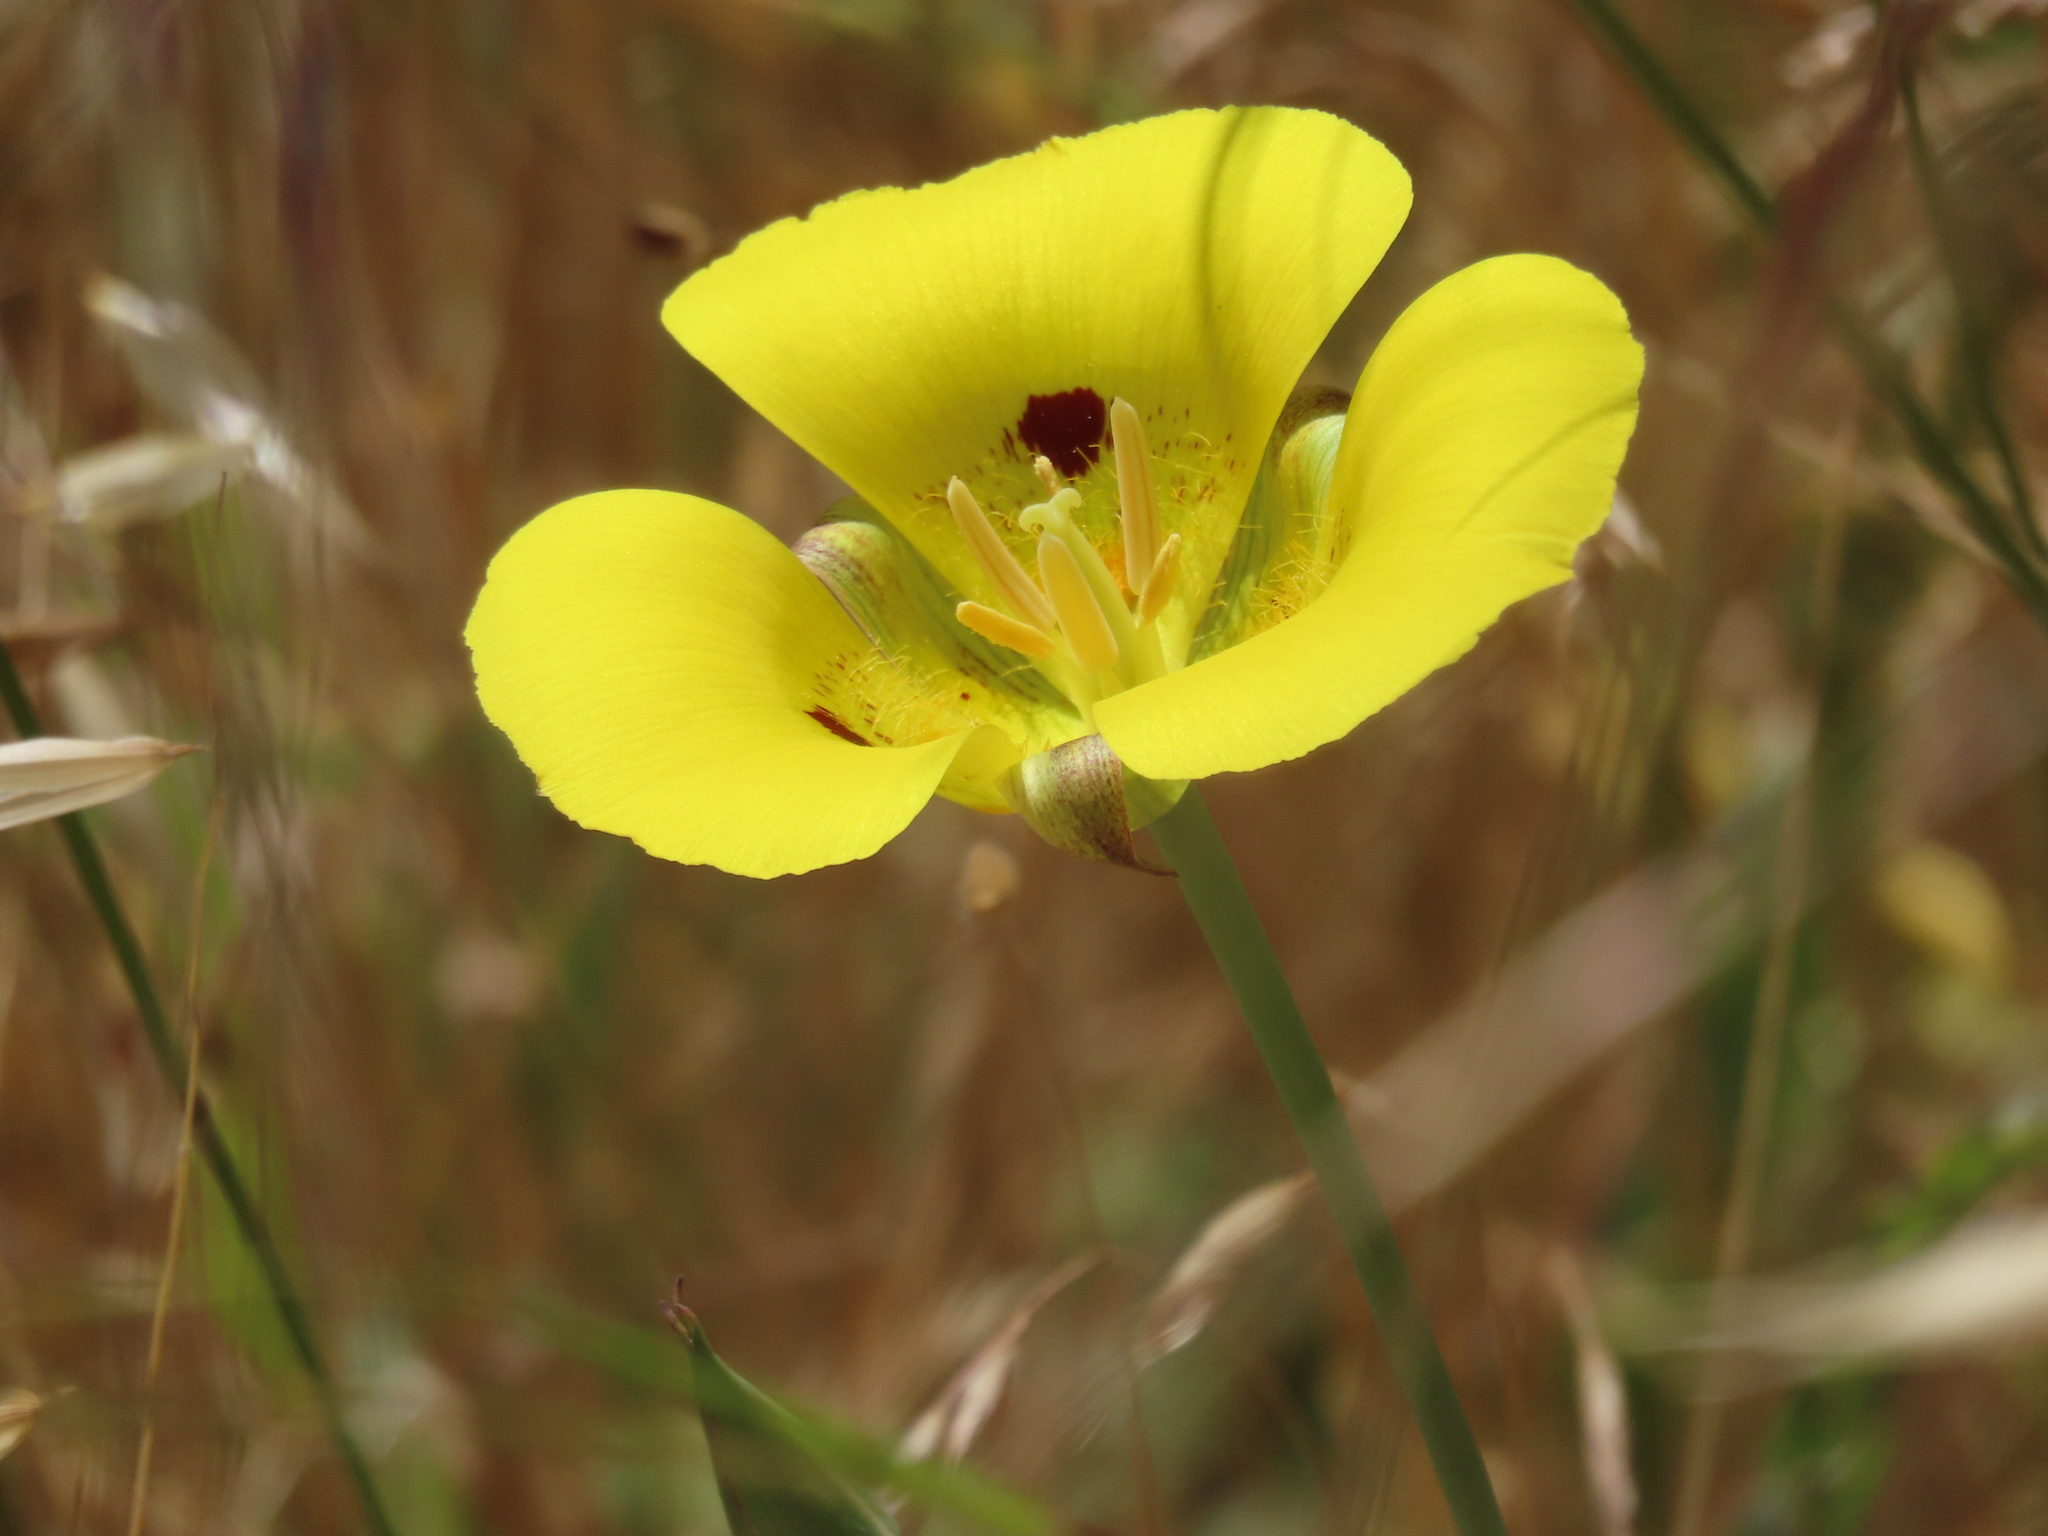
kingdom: Plantae
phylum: Tracheophyta
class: Liliopsida
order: Liliales
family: Liliaceae
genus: Calochortus
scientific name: Calochortus luteus
